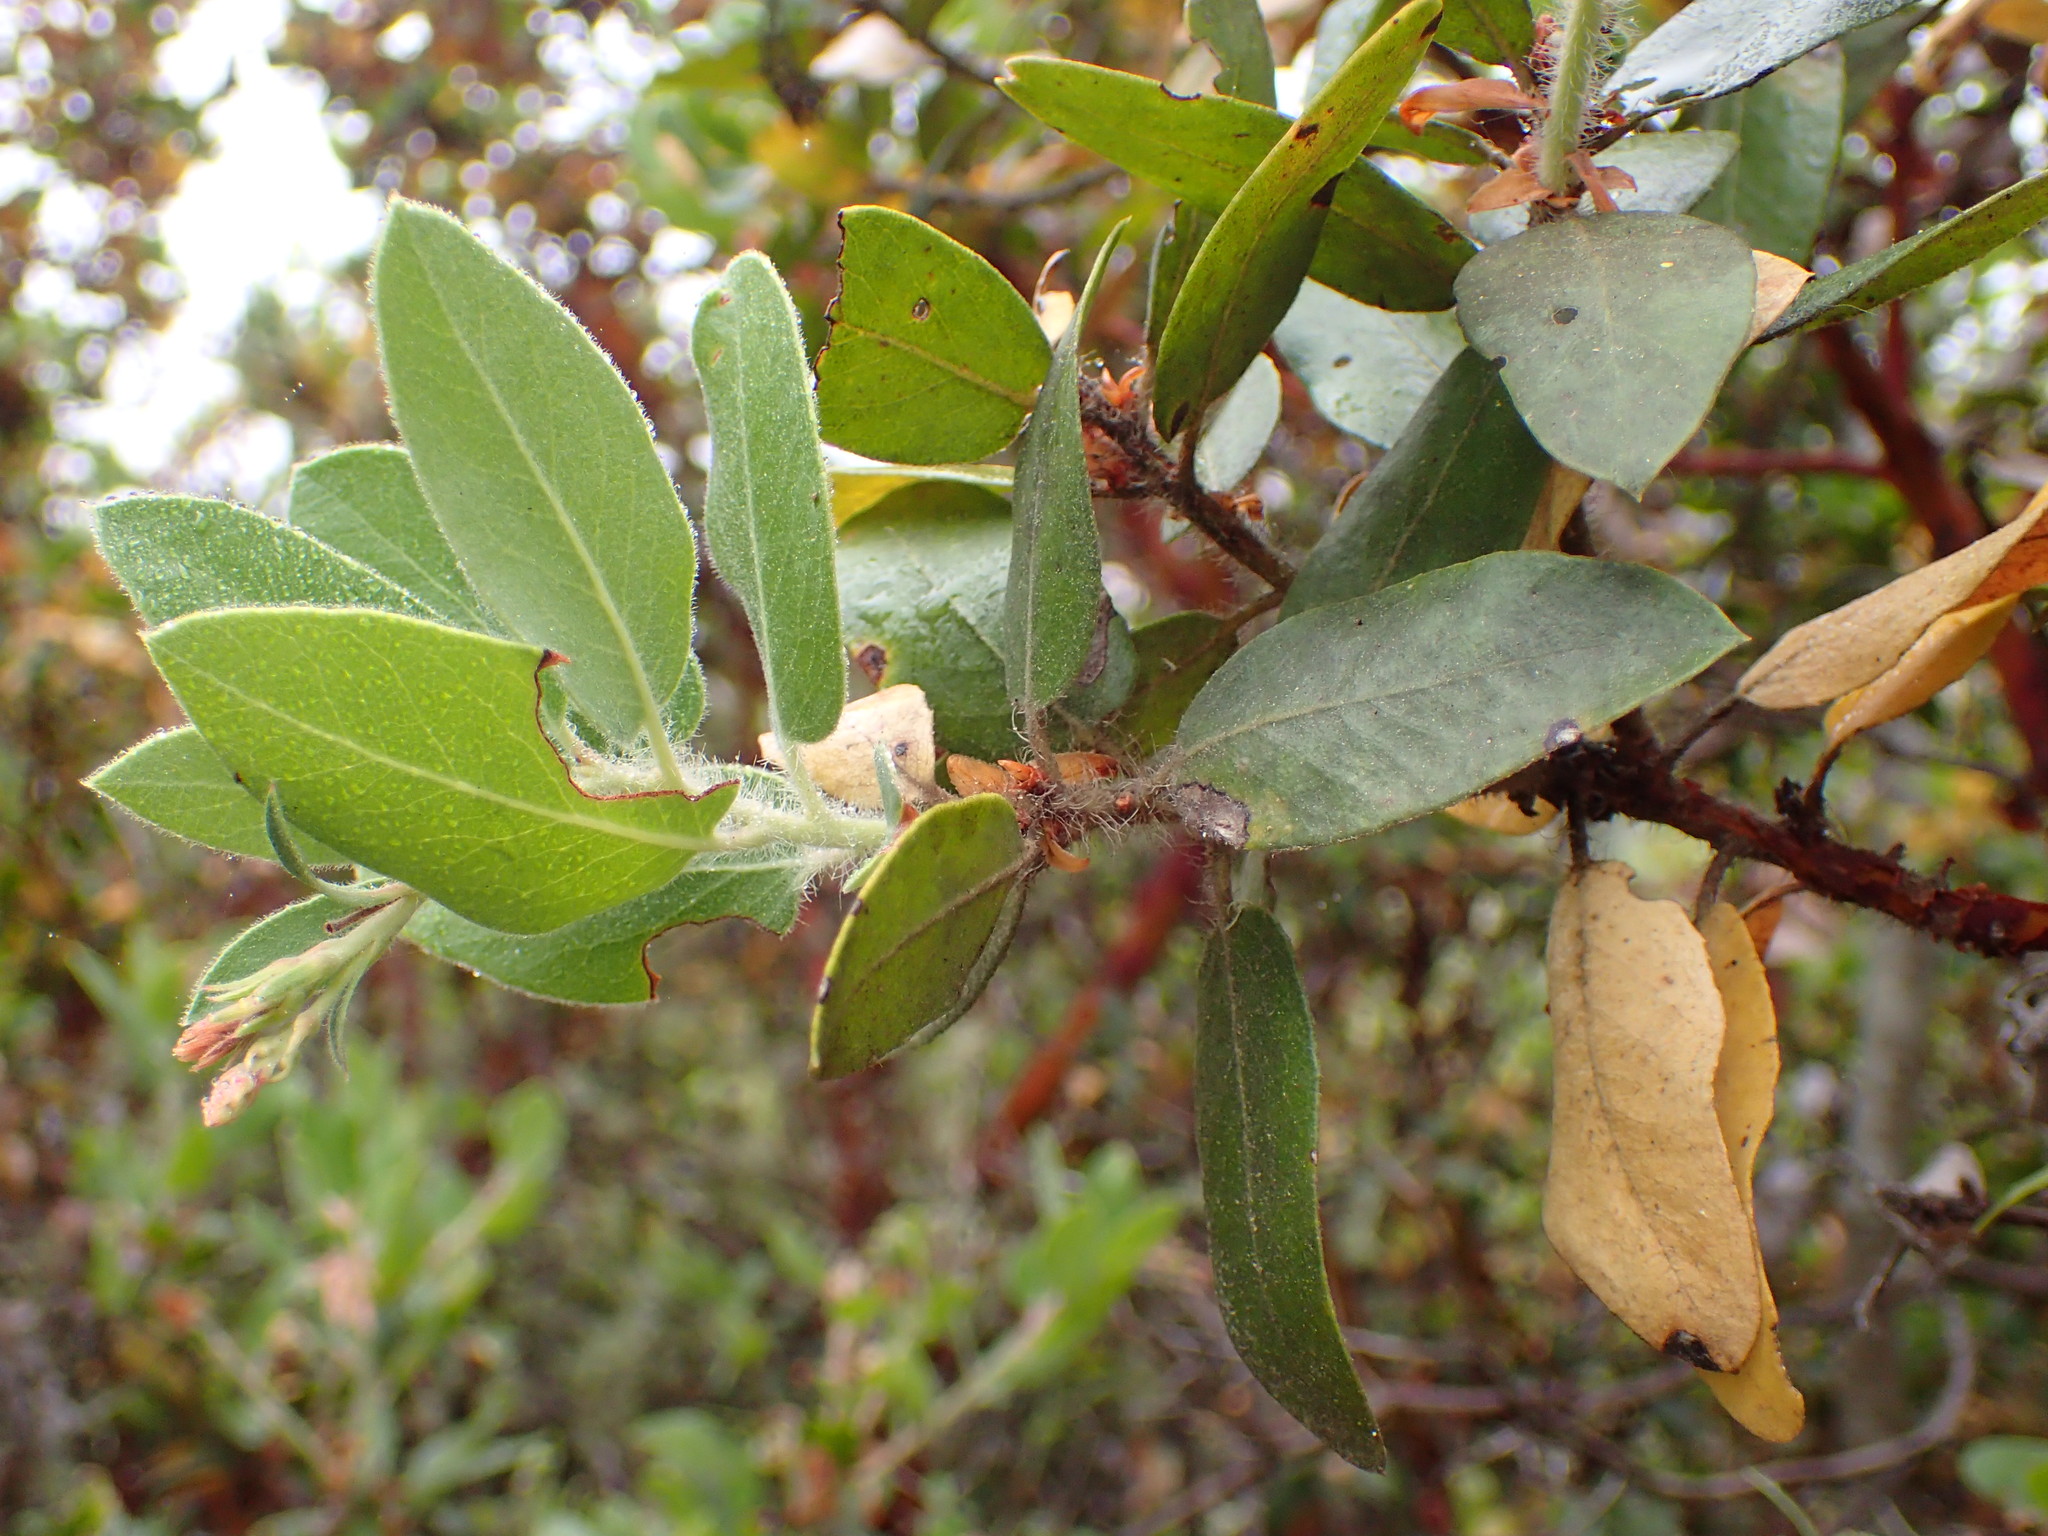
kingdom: Plantae
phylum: Tracheophyta
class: Magnoliopsida
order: Ericales
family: Ericaceae
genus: Arctostaphylos
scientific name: Arctostaphylos crustacea
